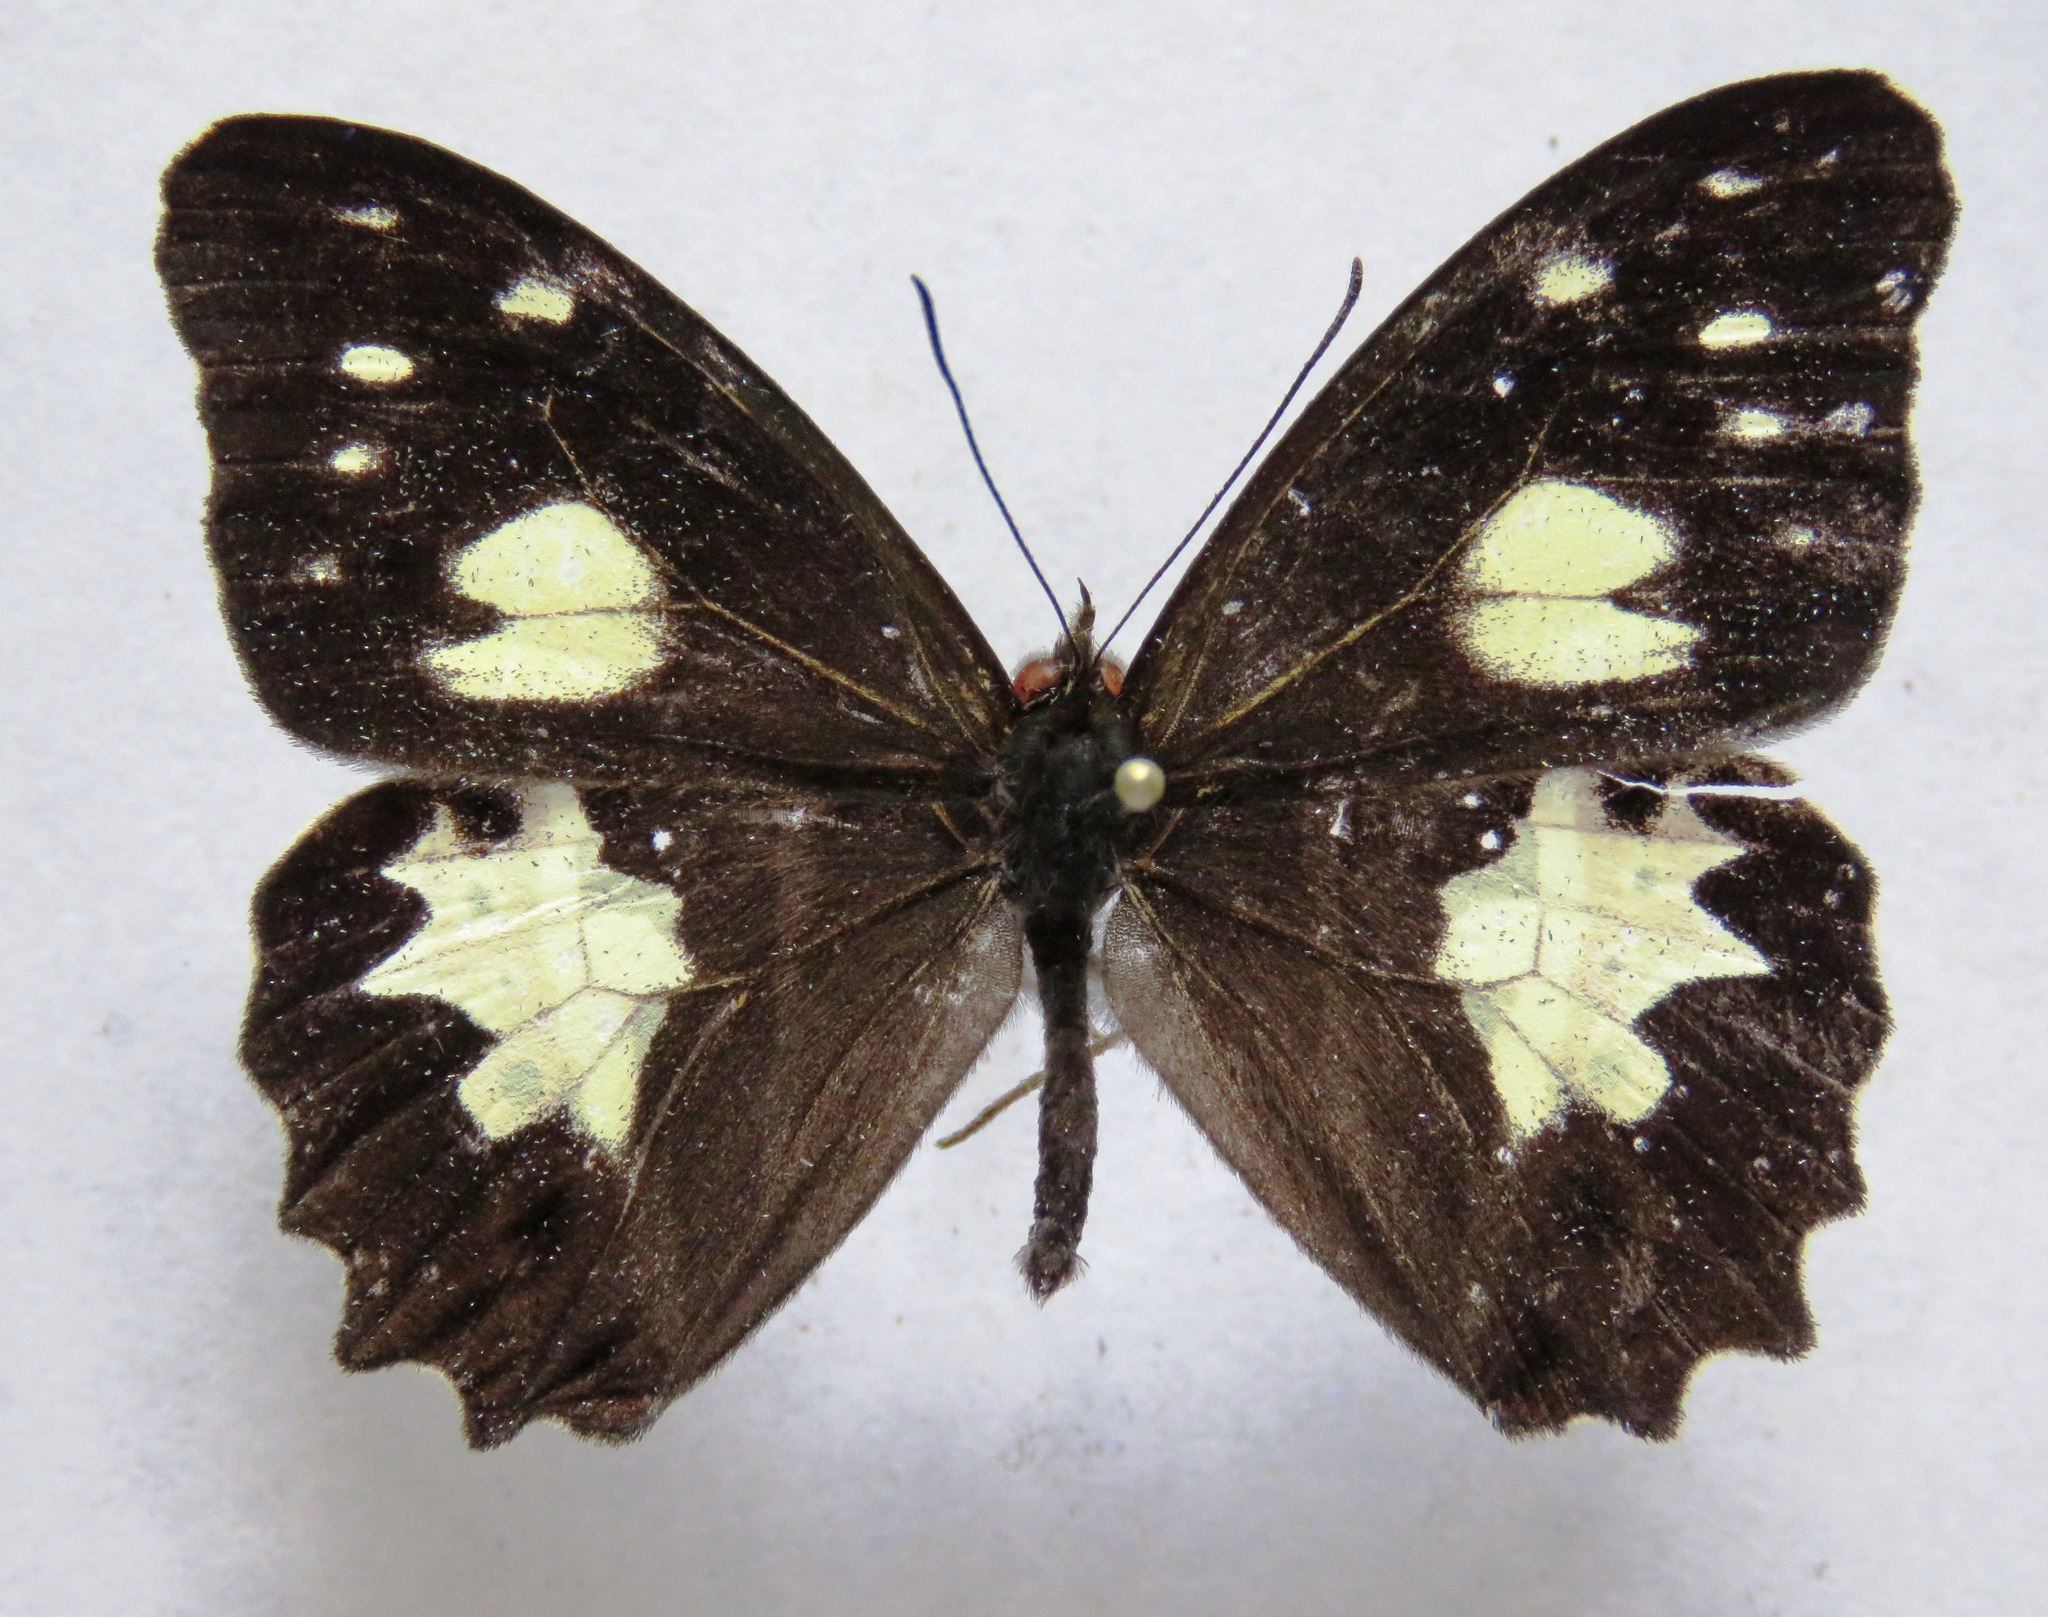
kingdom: Animalia
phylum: Arthropoda
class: Insecta
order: Lepidoptera
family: Nymphalidae
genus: Oxeoschistus
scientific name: Oxeoschistus tauropolis
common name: Starred oxeo
